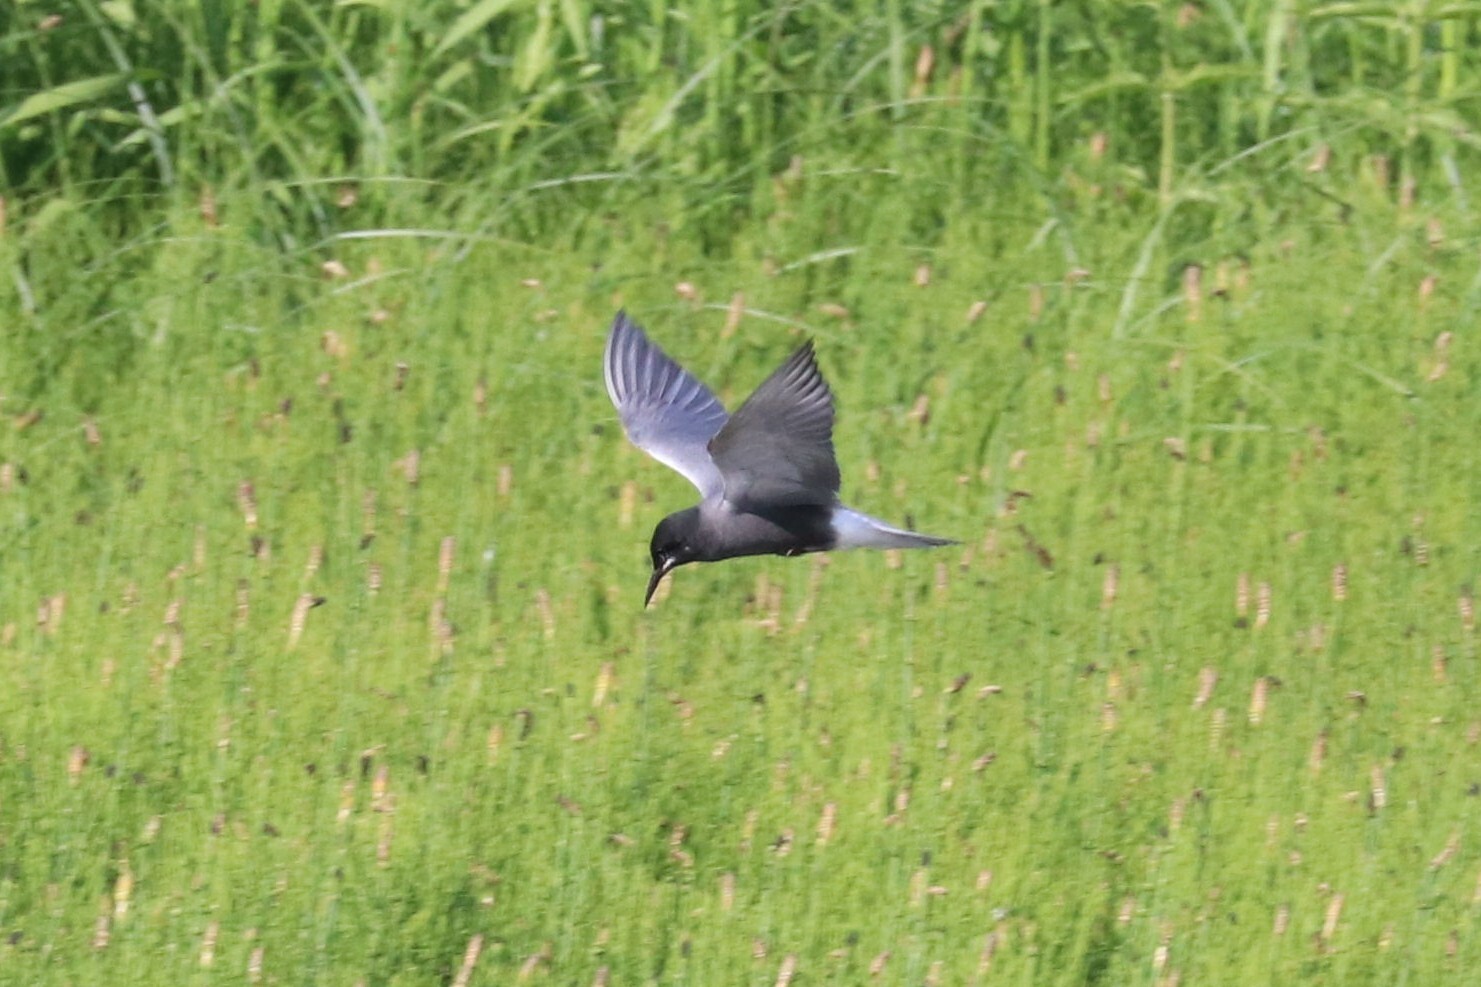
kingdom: Animalia
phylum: Chordata
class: Aves
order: Charadriiformes
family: Laridae
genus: Chlidonias
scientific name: Chlidonias niger
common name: Black tern
